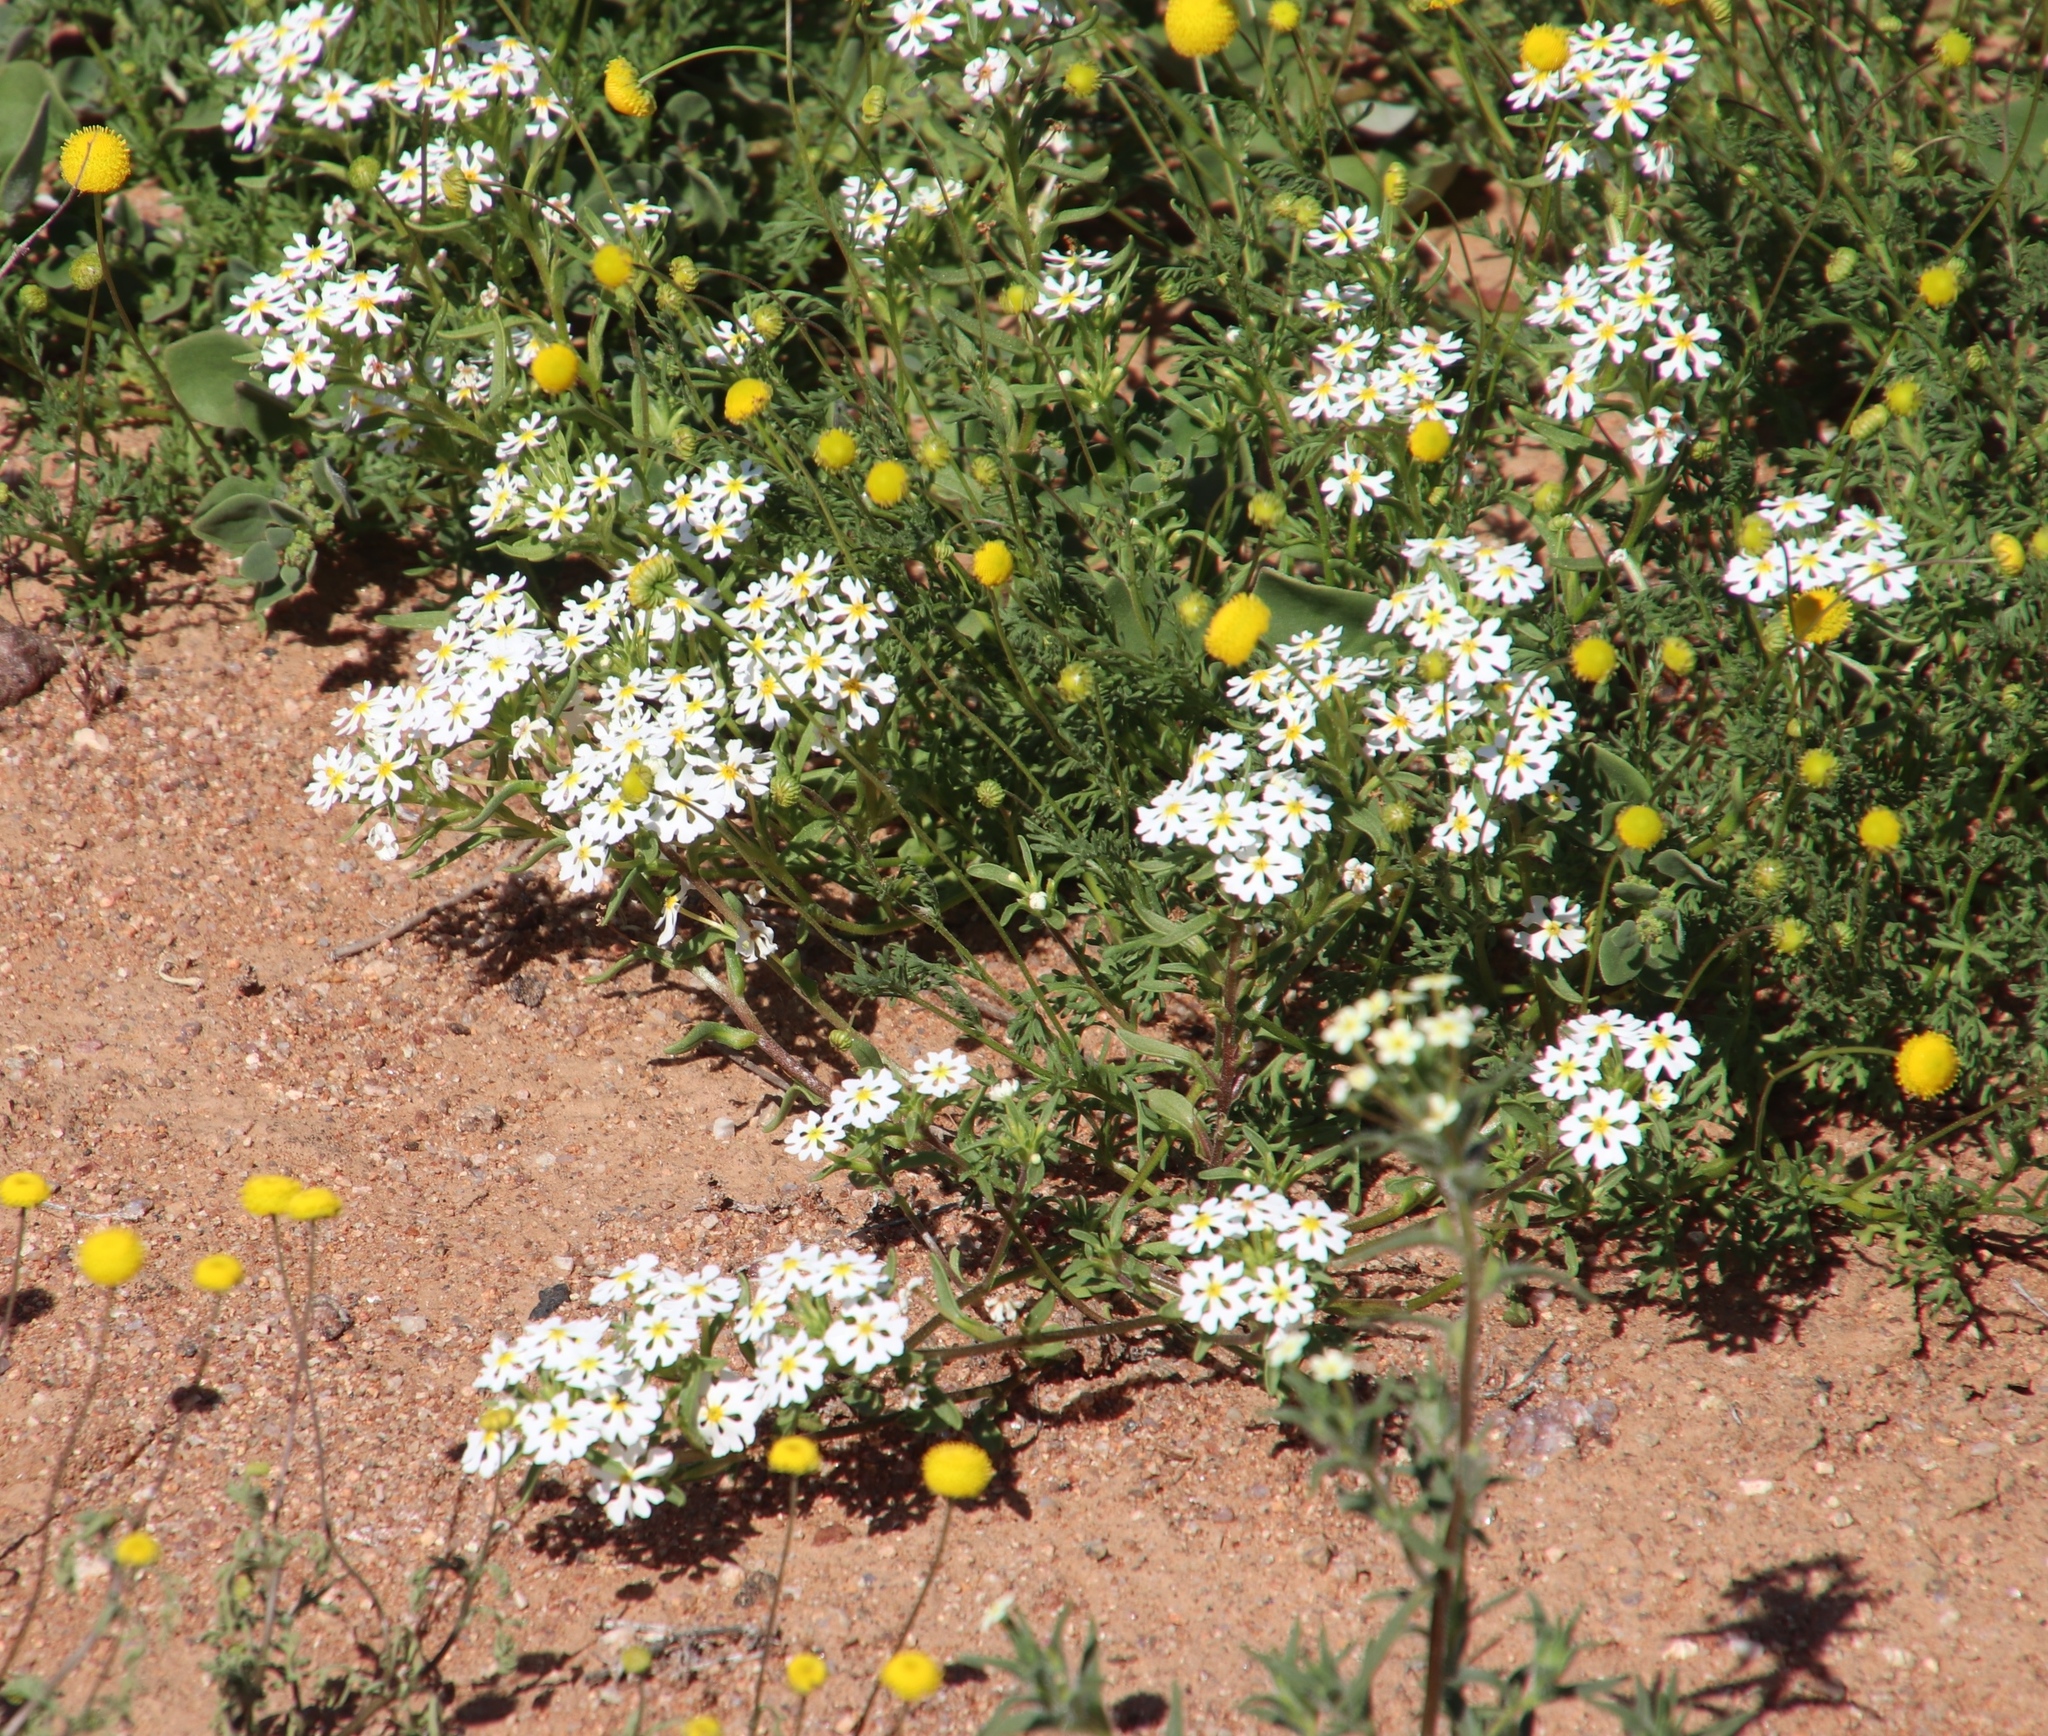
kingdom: Plantae
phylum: Tracheophyta
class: Magnoliopsida
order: Lamiales
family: Scrophulariaceae
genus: Zaluzianskya
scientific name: Zaluzianskya affinis
